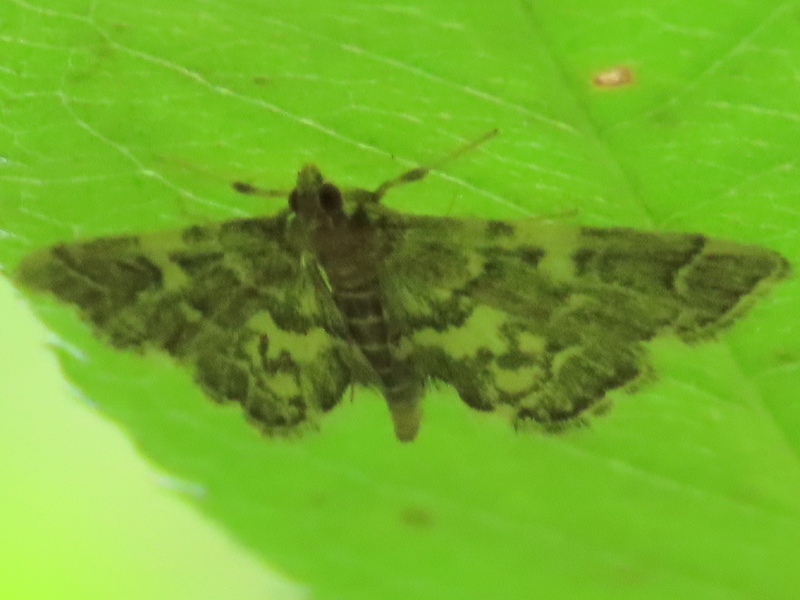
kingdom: Animalia
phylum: Arthropoda
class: Insecta
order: Lepidoptera
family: Crambidae
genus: Anageshna
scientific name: Anageshna primordialis
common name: Yellow-spotted webworm moth
